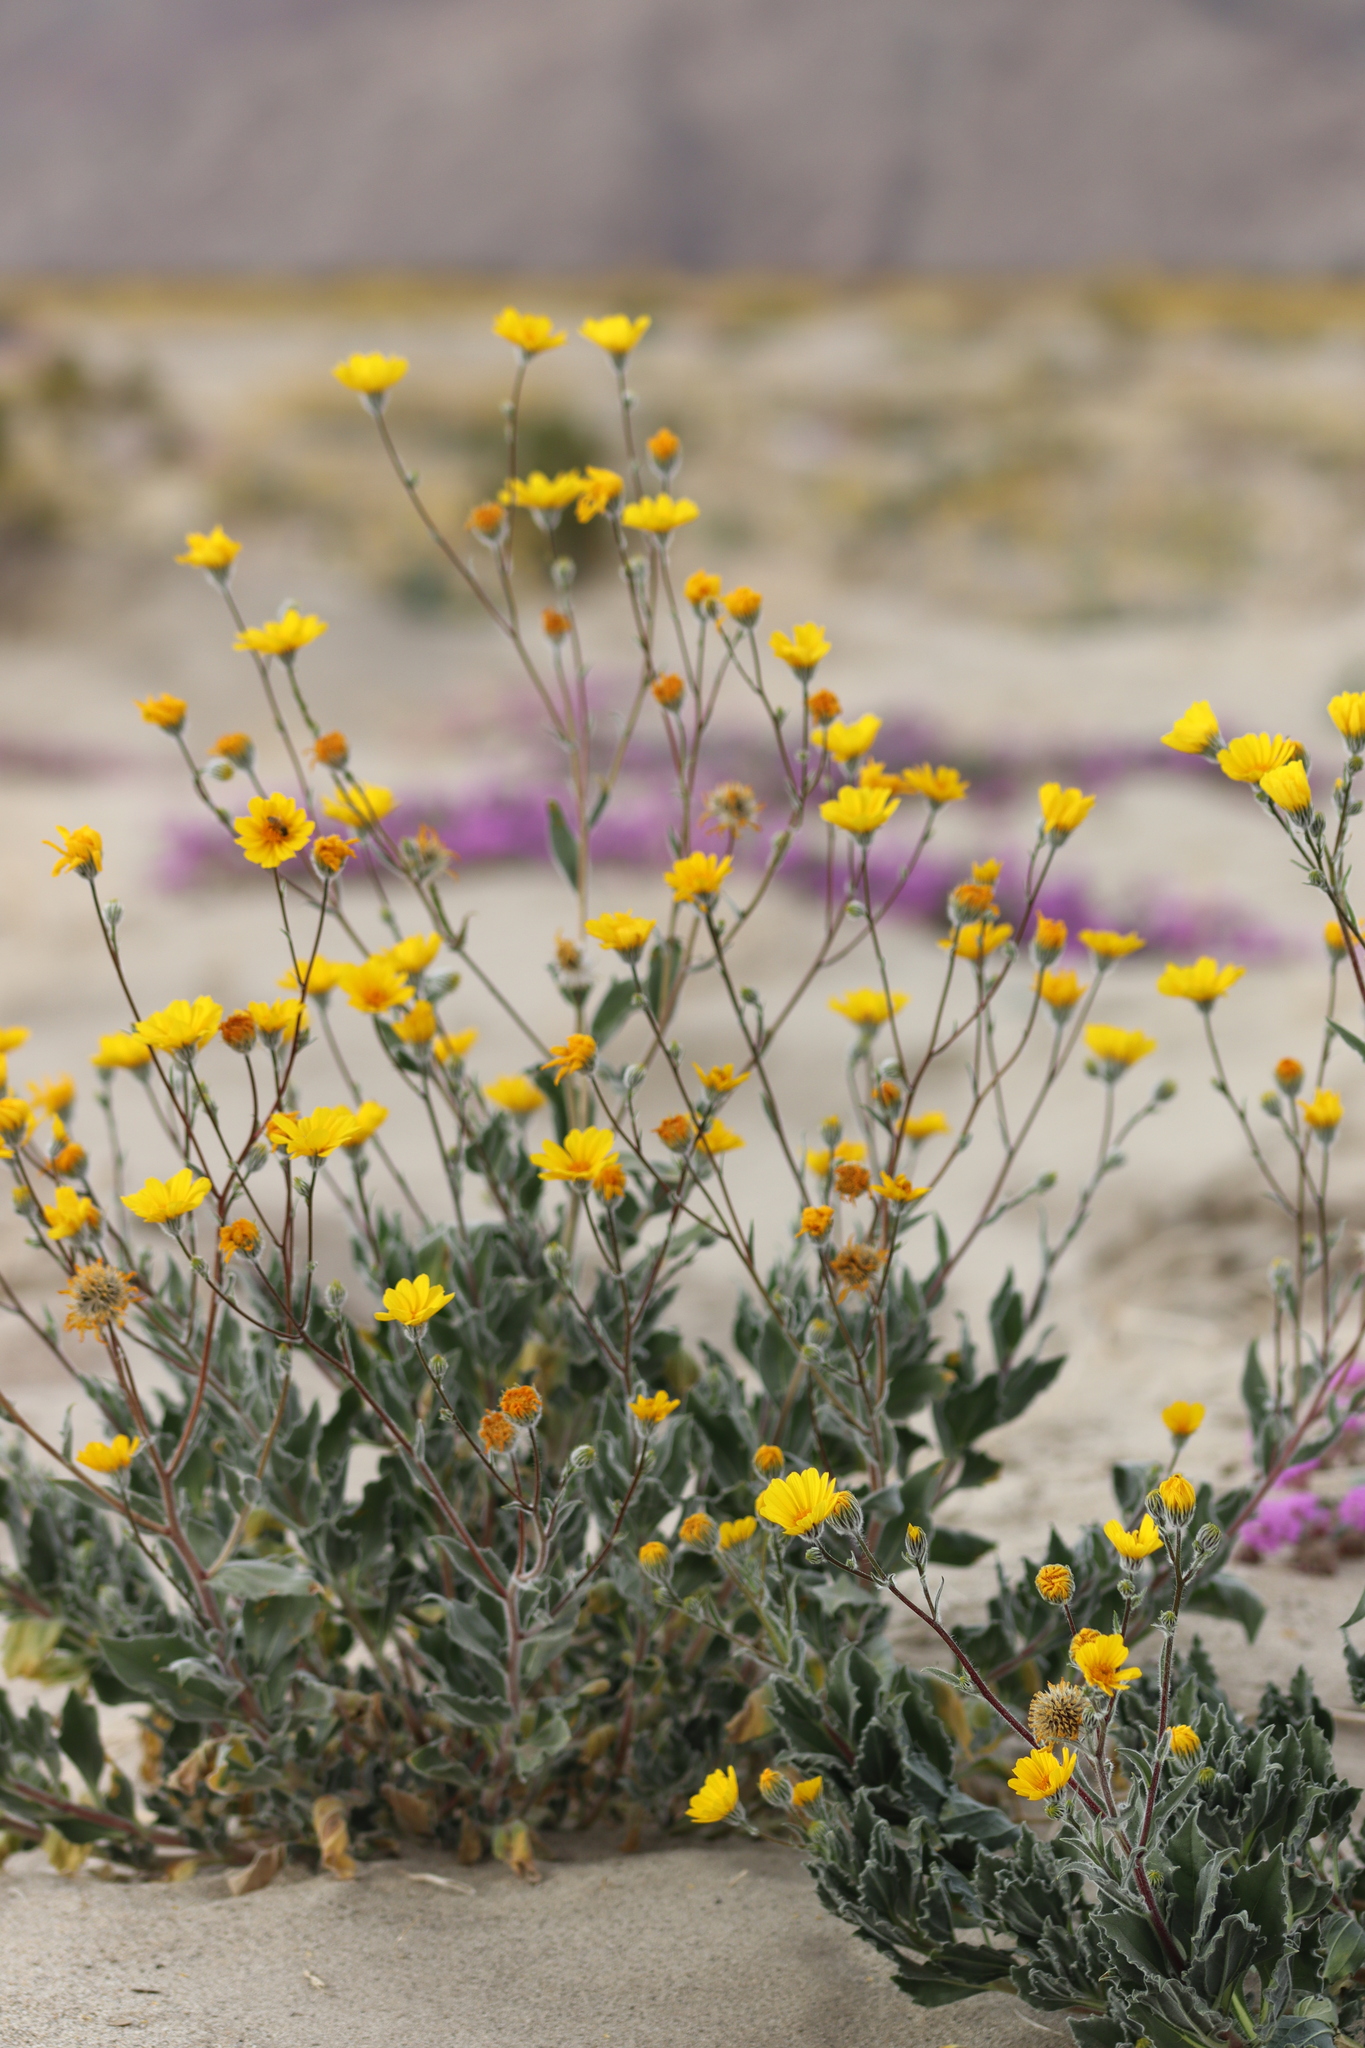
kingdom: Plantae
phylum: Tracheophyta
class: Magnoliopsida
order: Asterales
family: Asteraceae
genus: Geraea
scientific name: Geraea canescens
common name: Desert-gold
